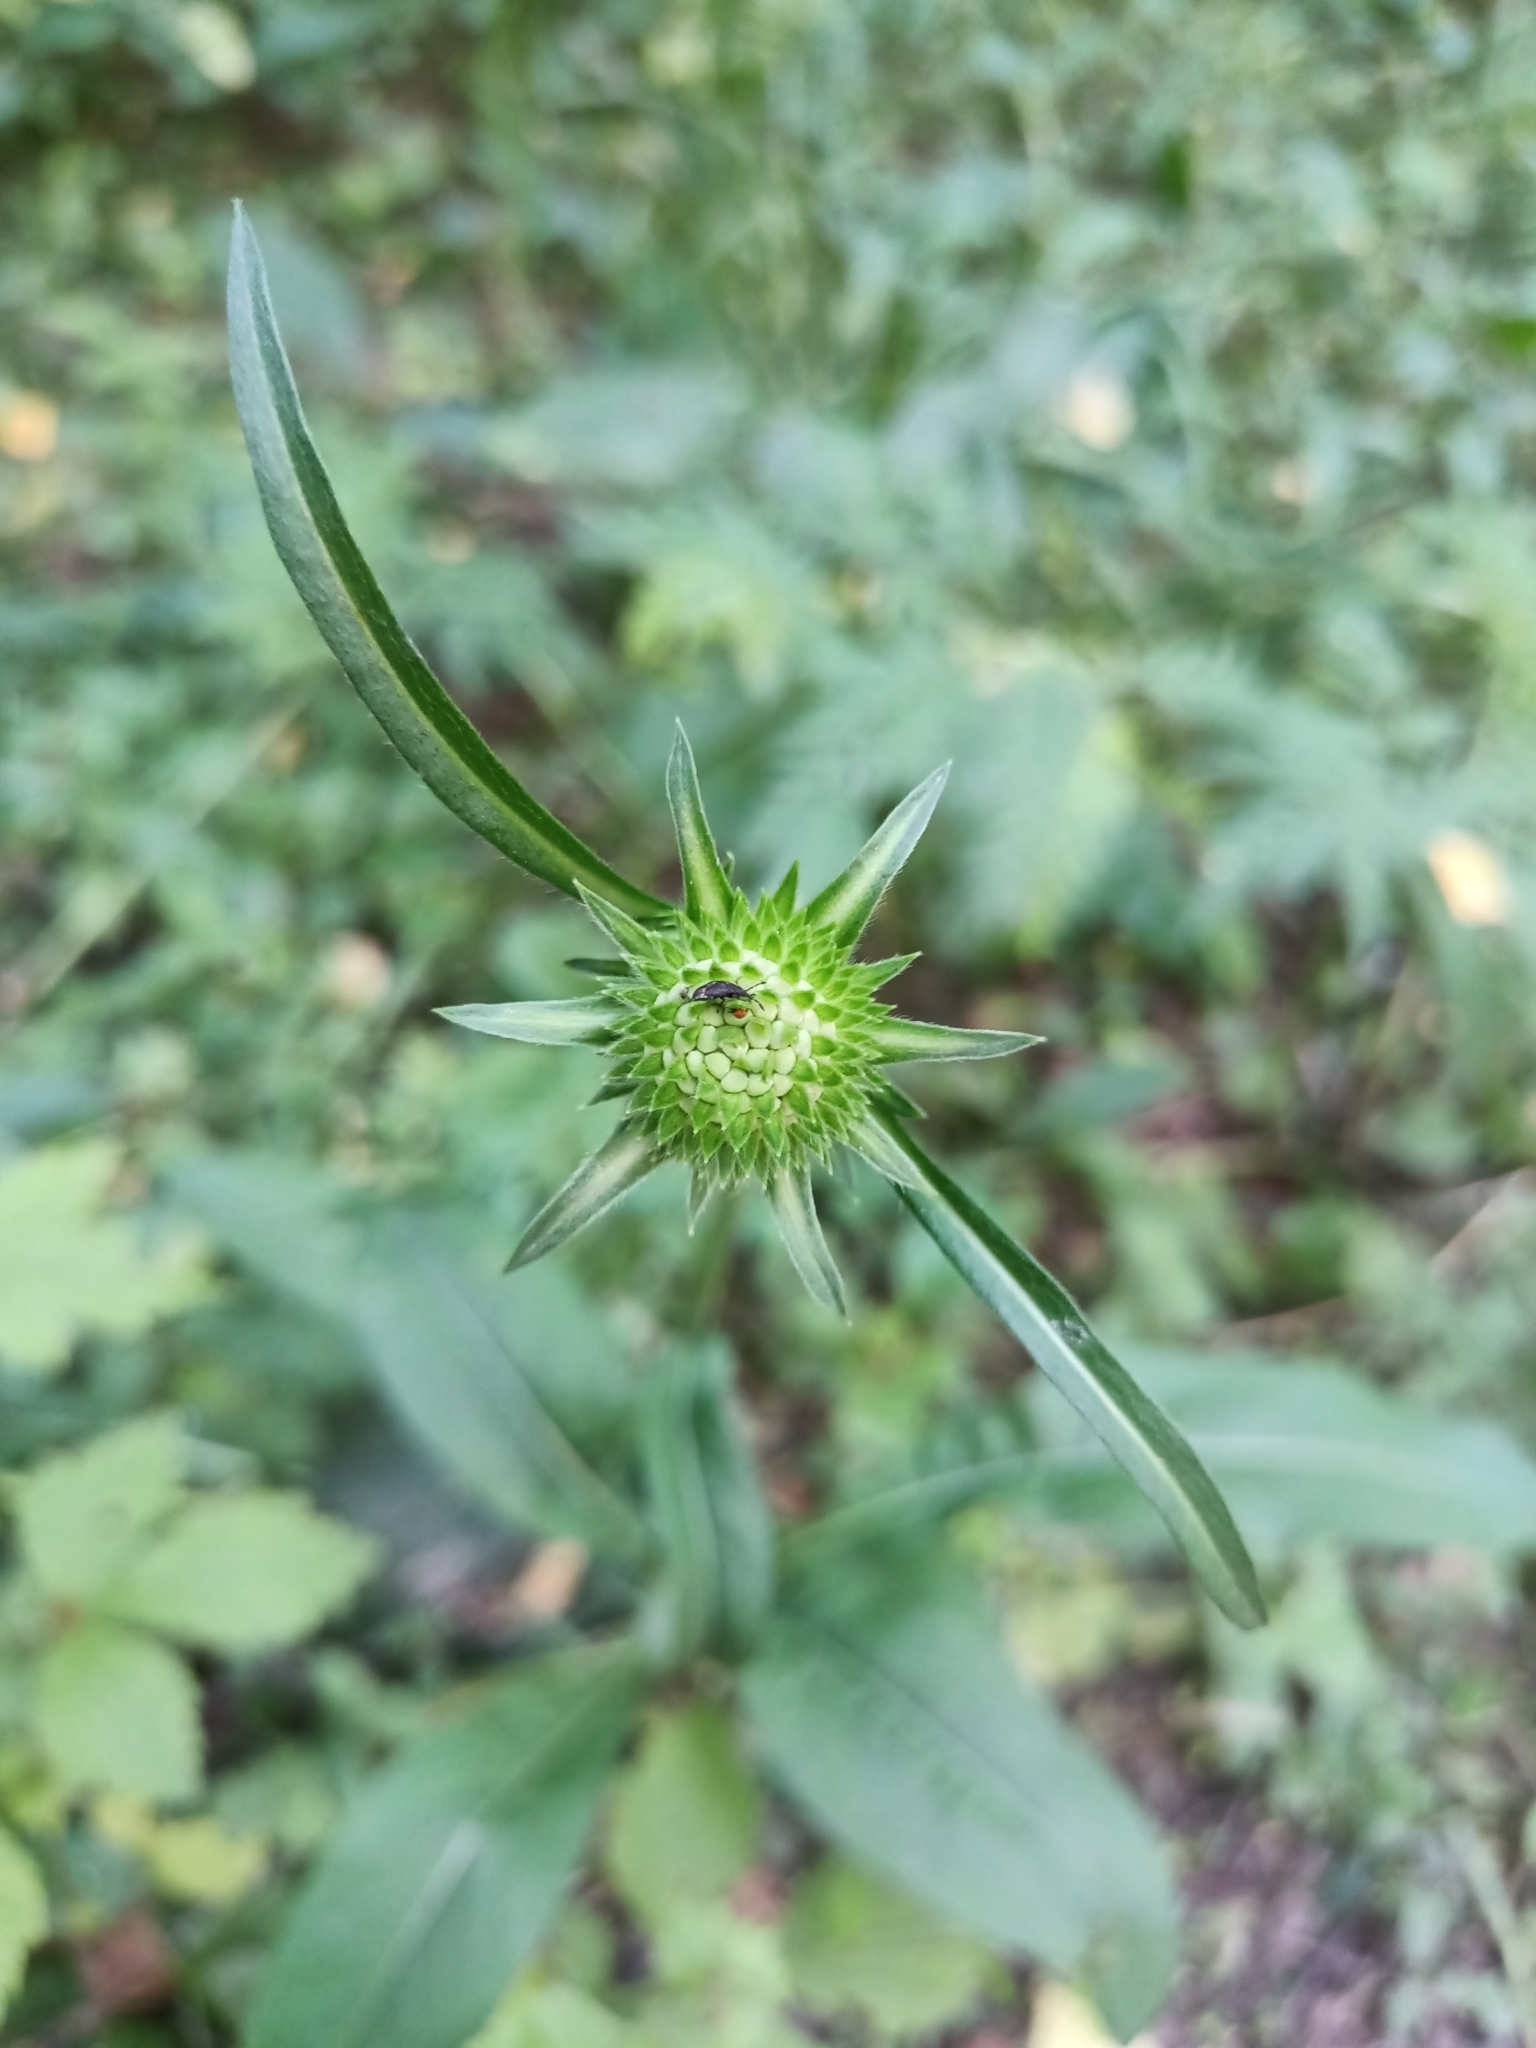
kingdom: Plantae
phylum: Tracheophyta
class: Magnoliopsida
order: Dipsacales
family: Caprifoliaceae
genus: Succisa
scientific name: Succisa pratensis
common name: Devil's-bit
